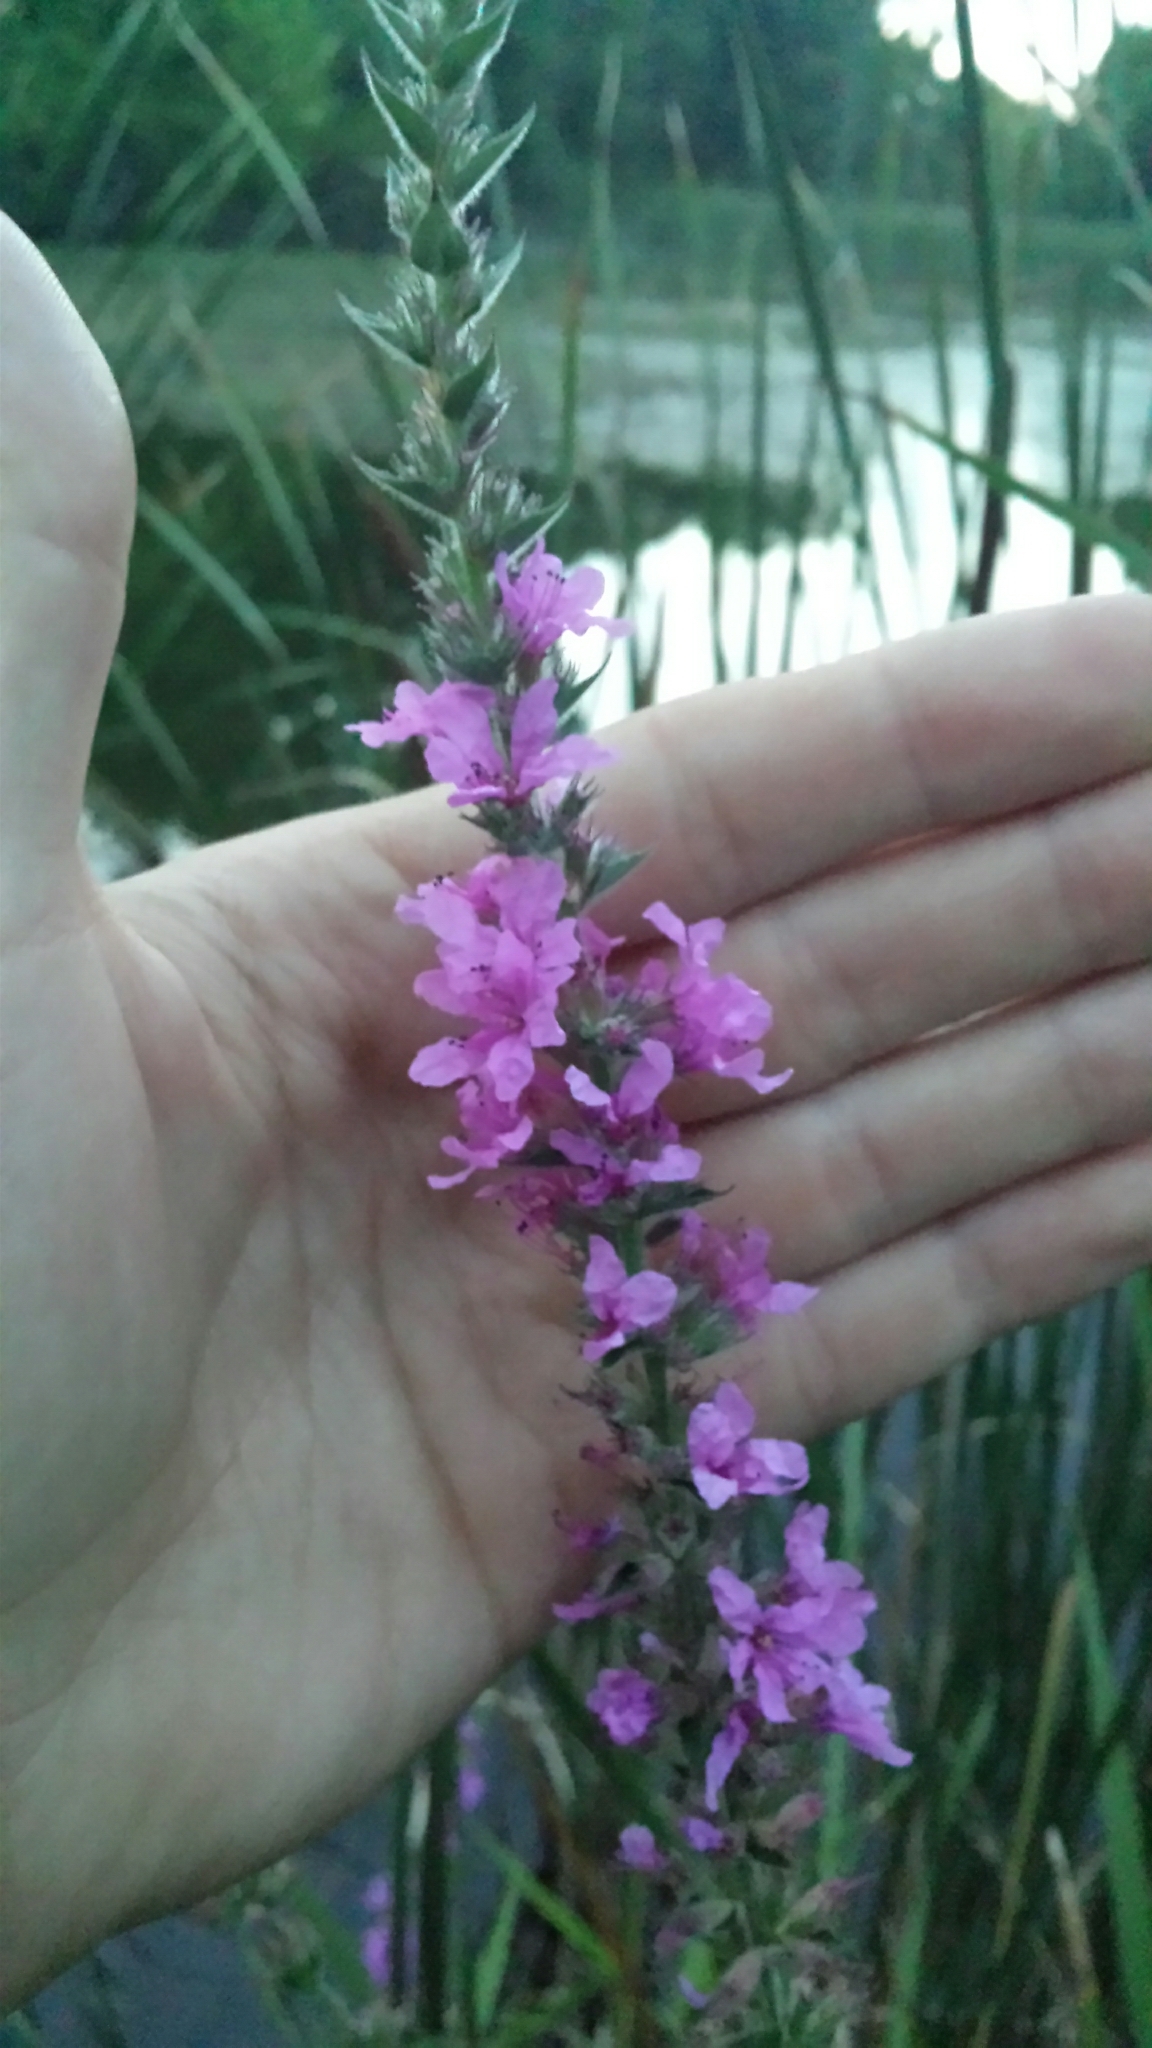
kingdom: Plantae
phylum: Tracheophyta
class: Magnoliopsida
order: Myrtales
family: Lythraceae
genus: Lythrum
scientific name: Lythrum salicaria
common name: Purple loosestrife
